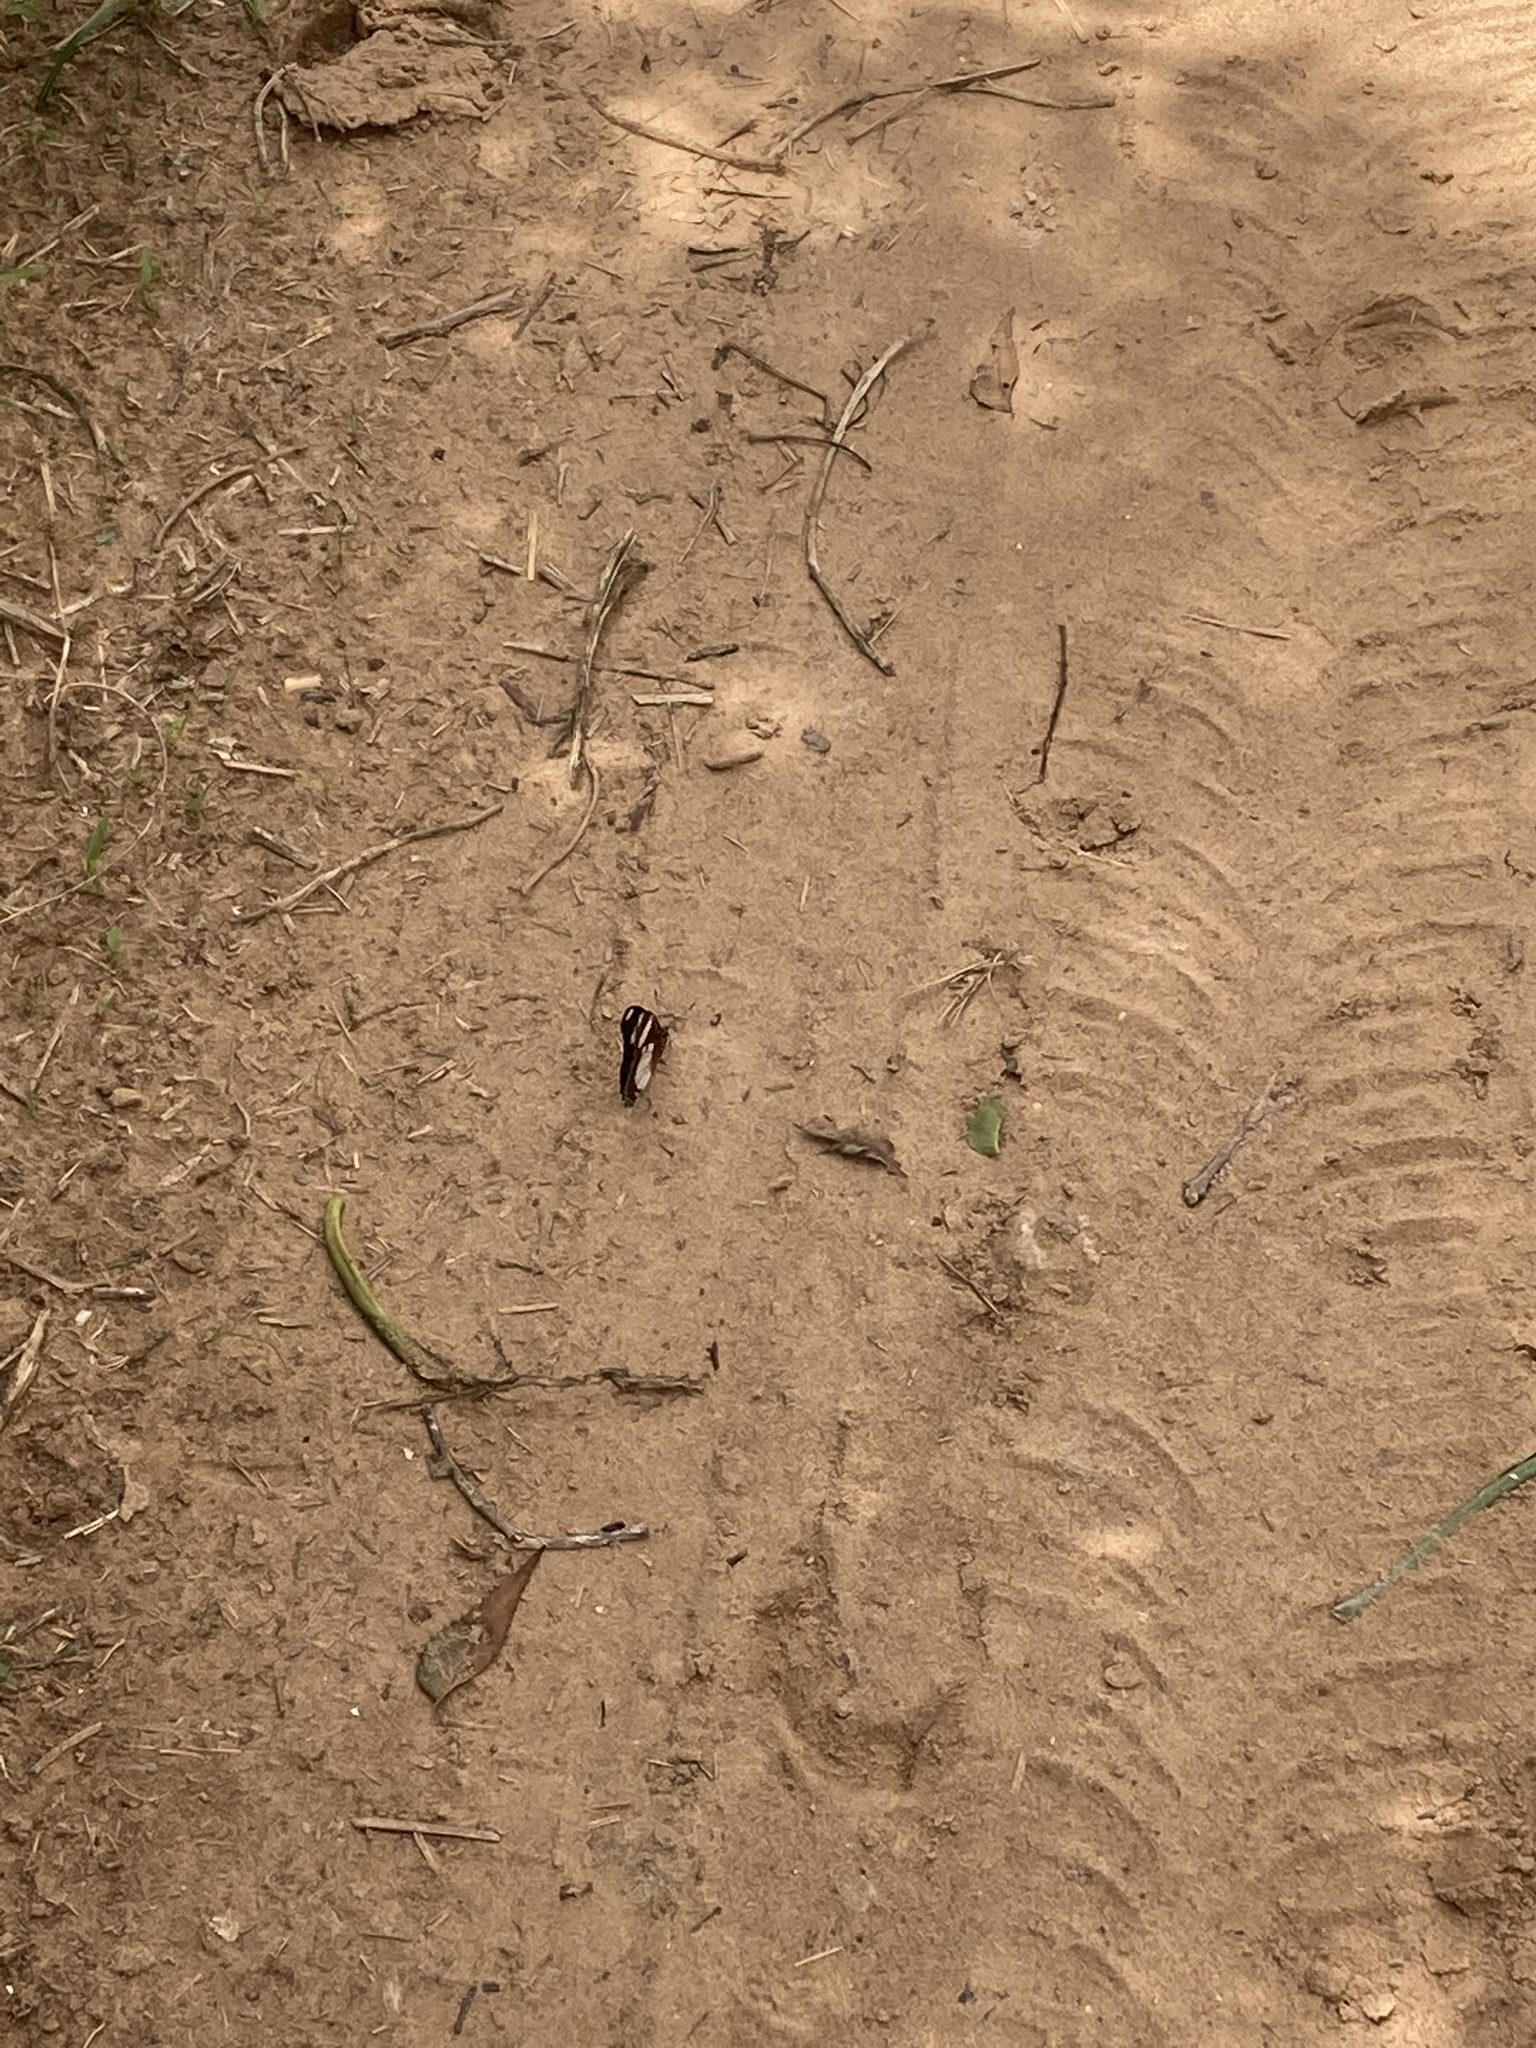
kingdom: Animalia
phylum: Arthropoda
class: Insecta
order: Lepidoptera
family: Nymphalidae
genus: Hypolimnas
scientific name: Hypolimnas misippus
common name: False plain tiger
